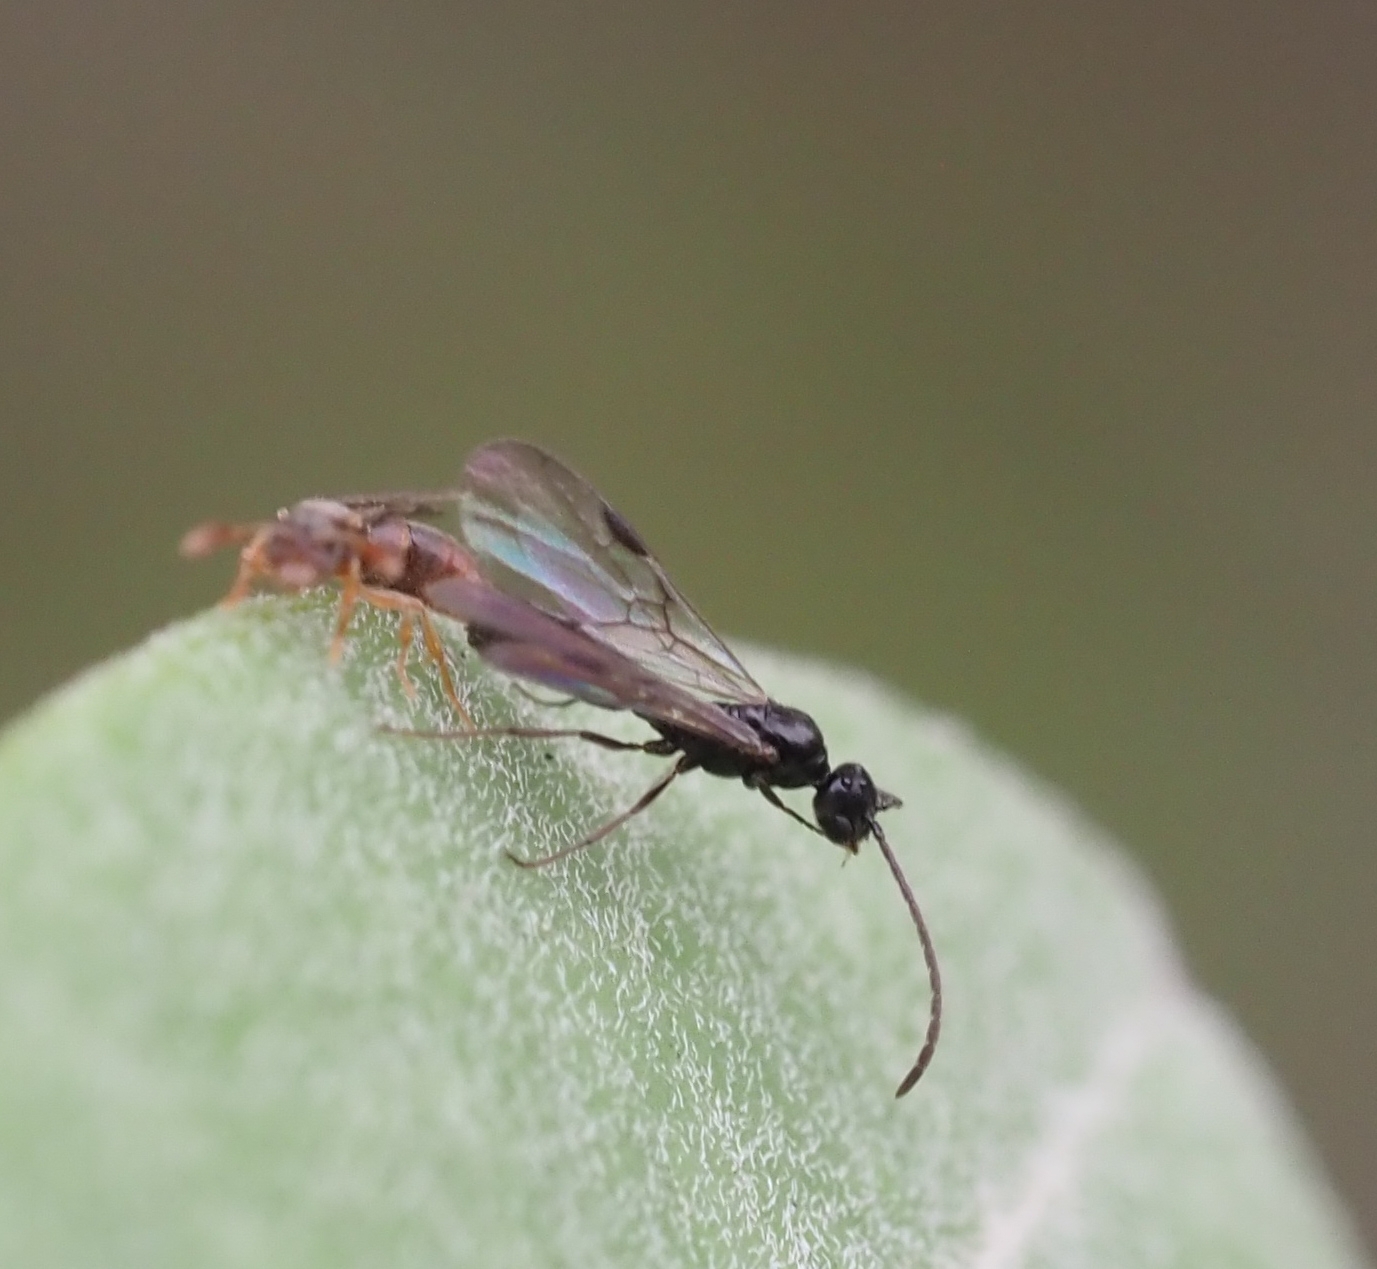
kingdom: Animalia
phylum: Arthropoda
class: Insecta
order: Hymenoptera
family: Formicidae
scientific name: Formicidae
